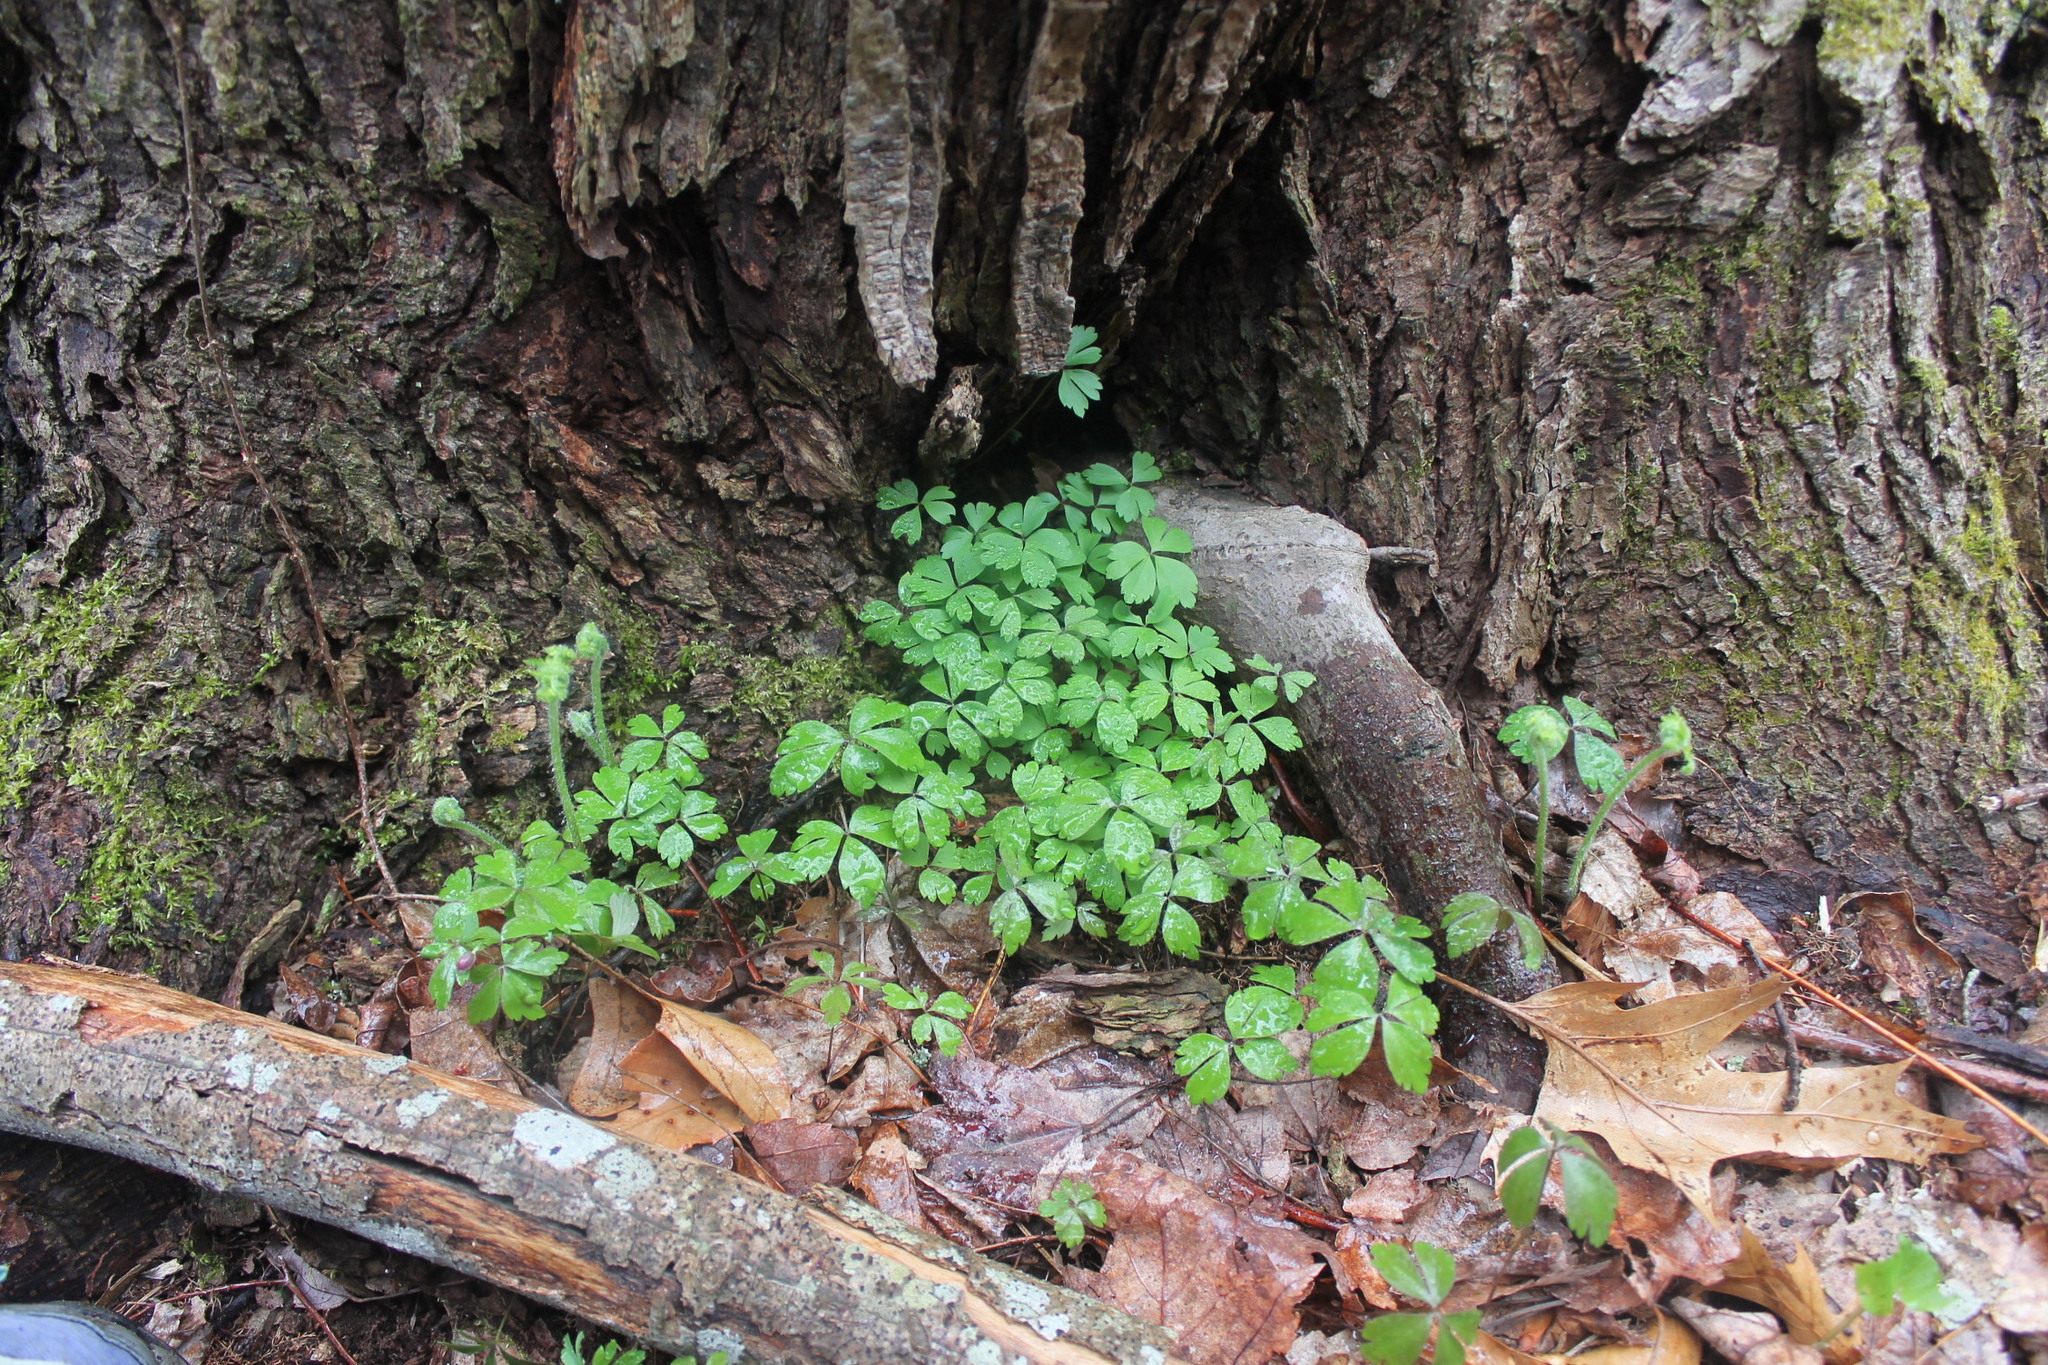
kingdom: Plantae
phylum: Tracheophyta
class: Magnoliopsida
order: Ranunculales
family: Ranunculaceae
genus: Anemone
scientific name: Anemone quinquefolia
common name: Wood anemone
